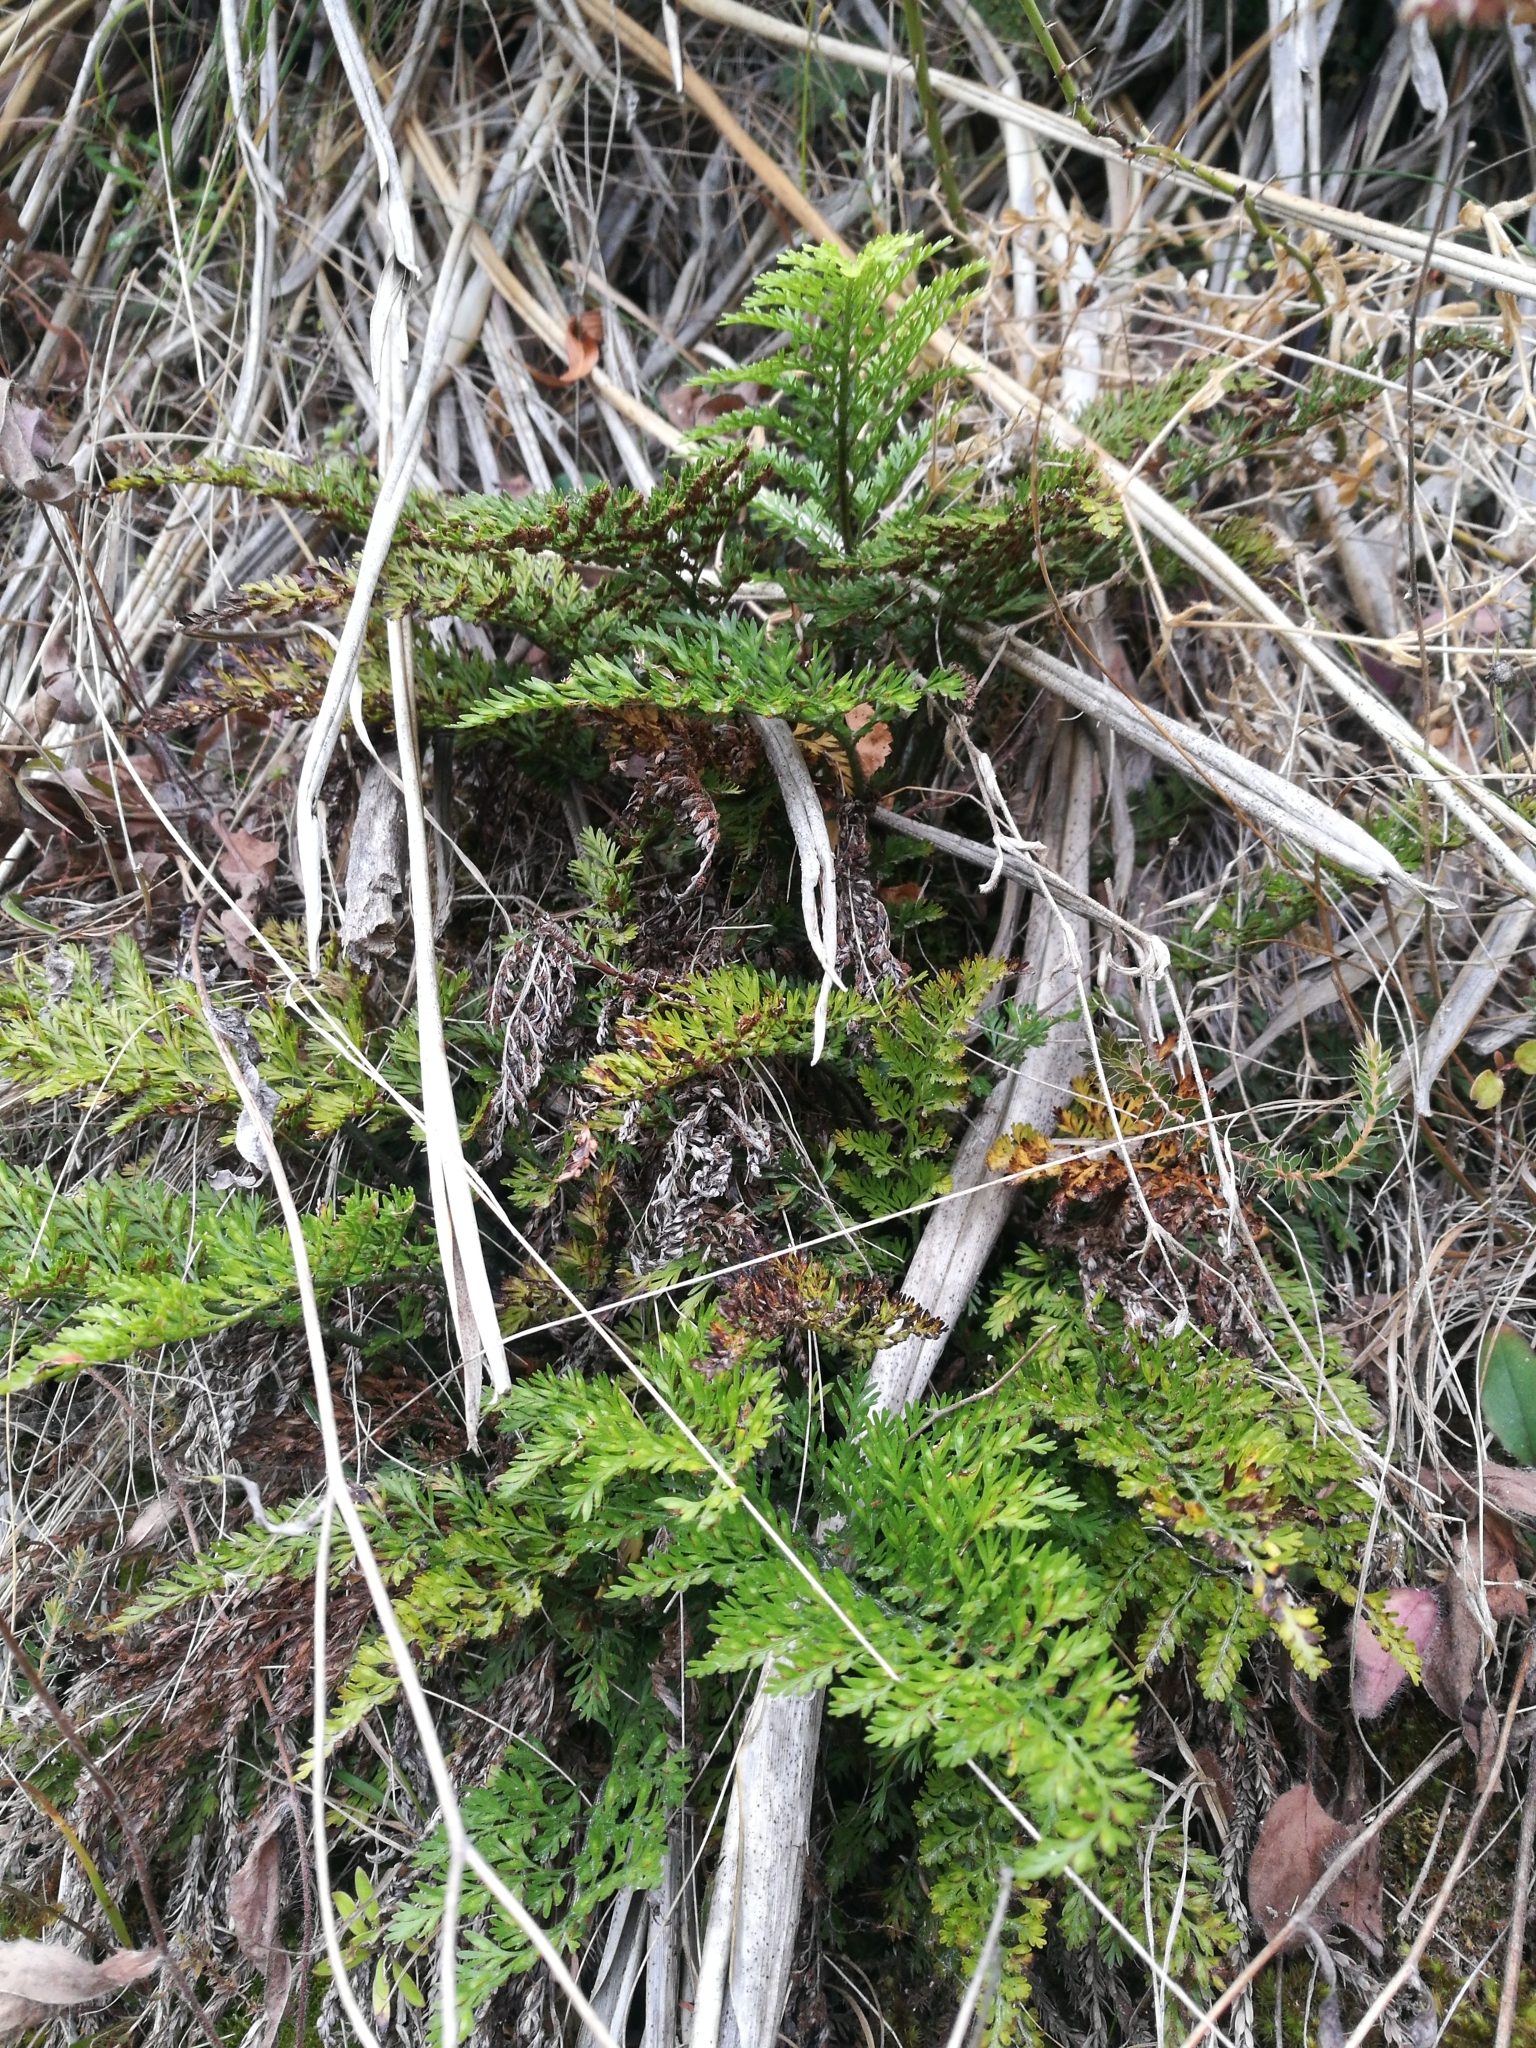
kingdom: Plantae
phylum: Tracheophyta
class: Polypodiopsida
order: Polypodiales
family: Aspleniaceae
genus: Asplenium
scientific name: Asplenium richardii
